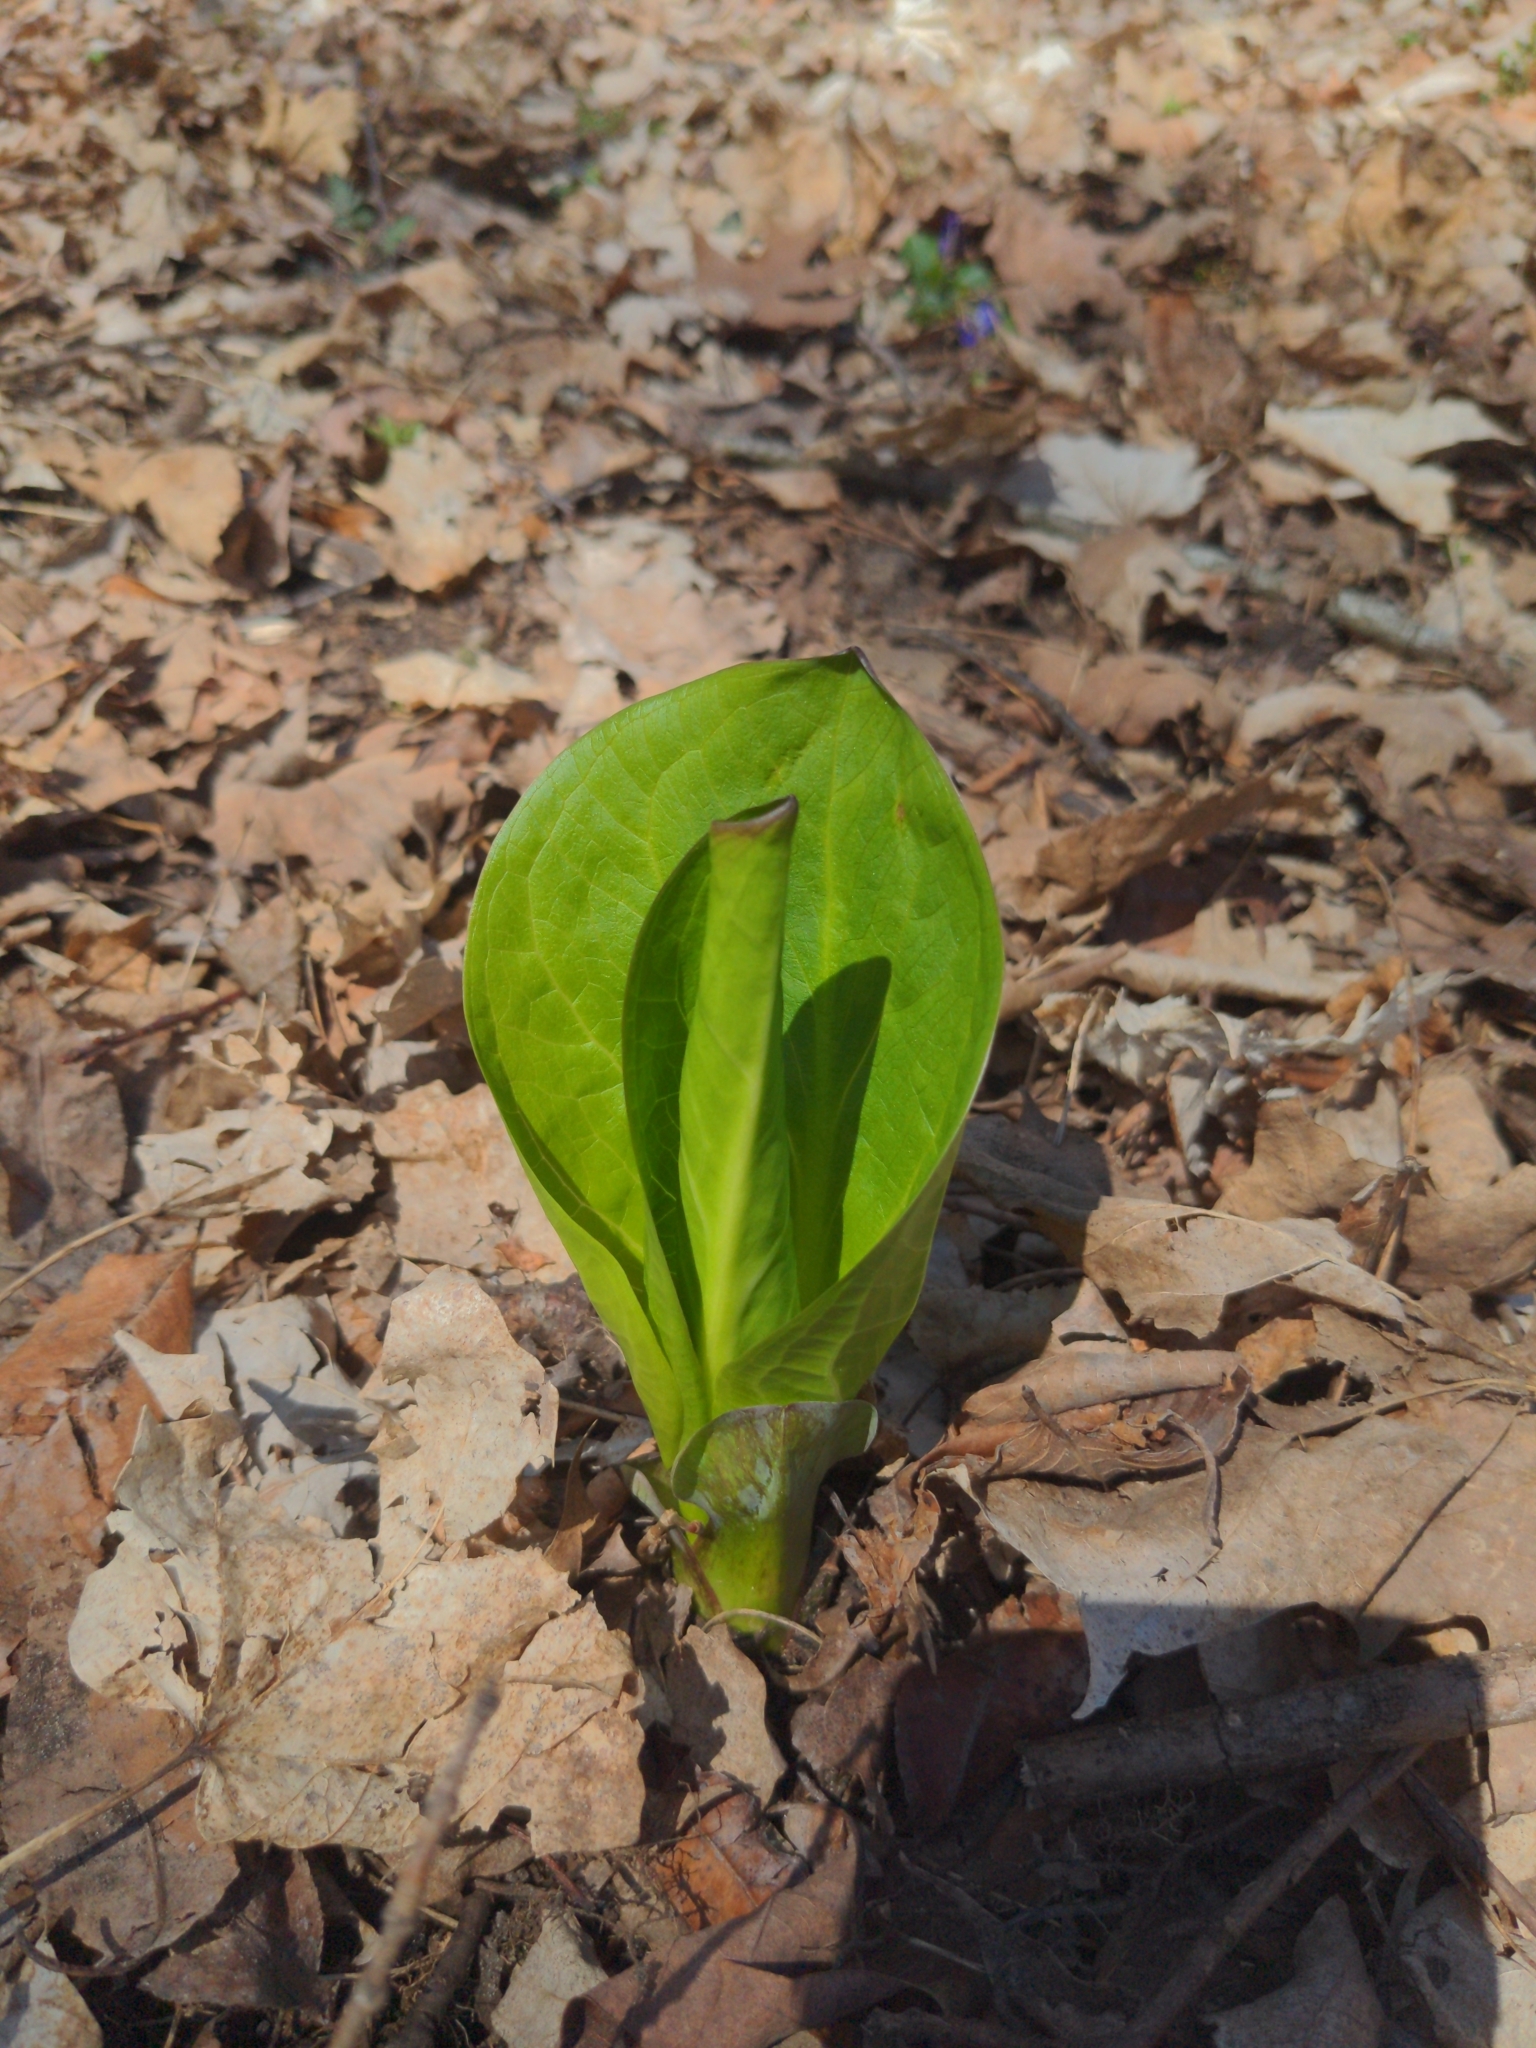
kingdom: Plantae
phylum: Tracheophyta
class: Liliopsida
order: Alismatales
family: Araceae
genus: Symplocarpus
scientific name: Symplocarpus foetidus
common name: Eastern skunk cabbage
